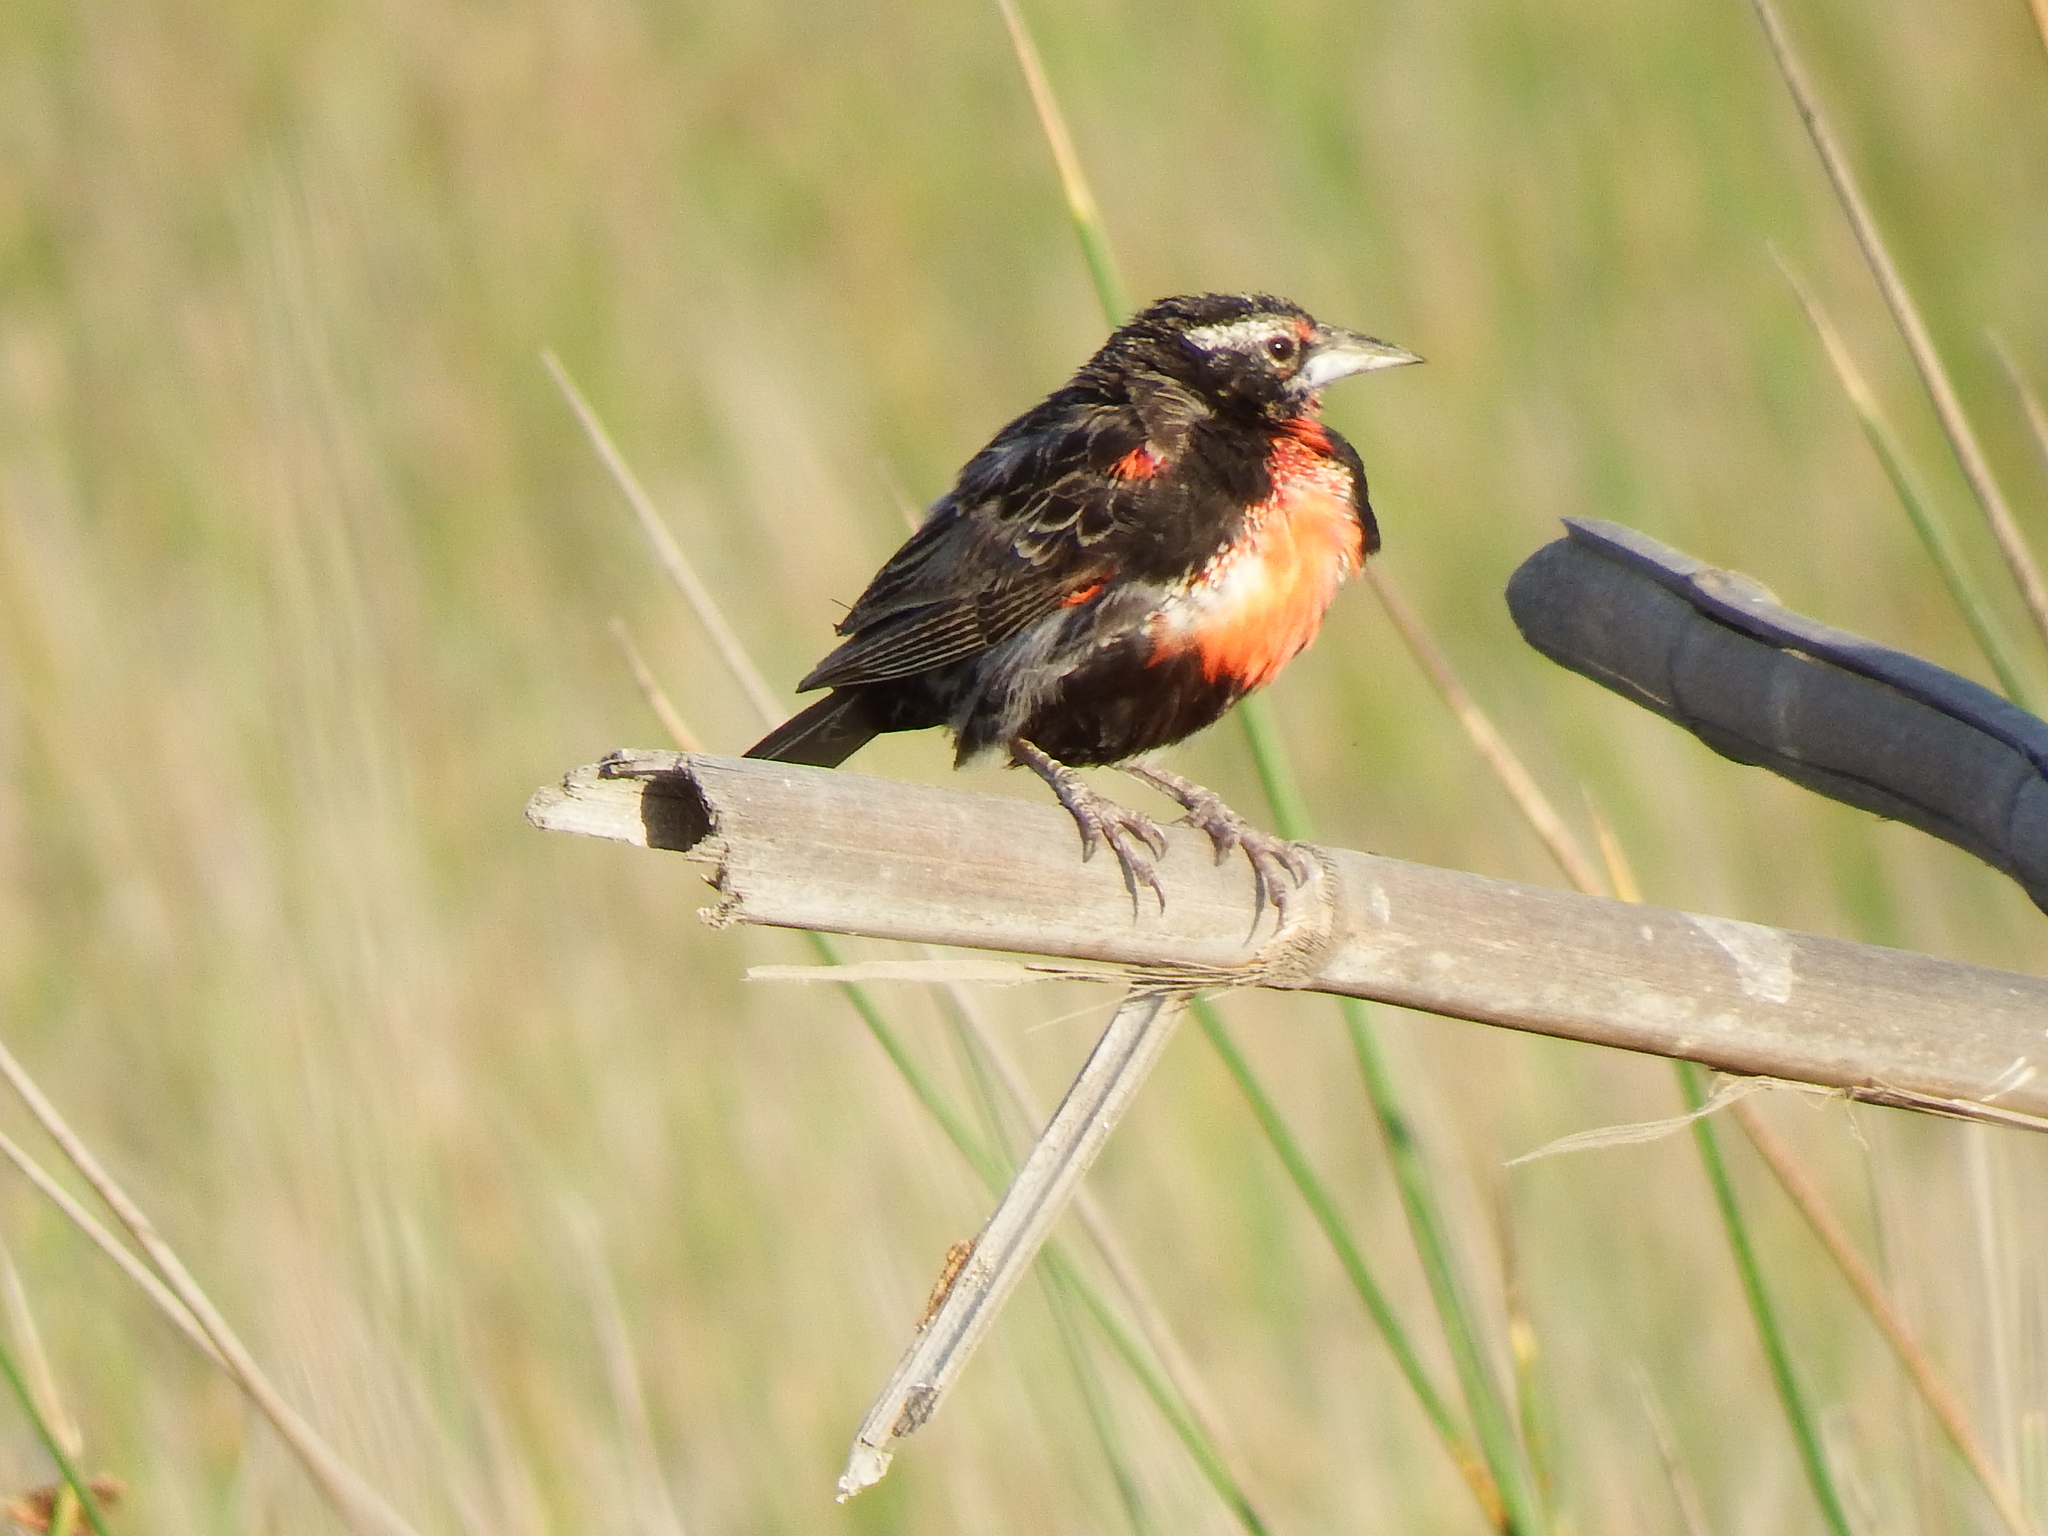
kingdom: Animalia
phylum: Chordata
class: Aves
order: Passeriformes
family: Icteridae
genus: Sturnella
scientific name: Sturnella bellicosa
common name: Peruvian meadowlark
